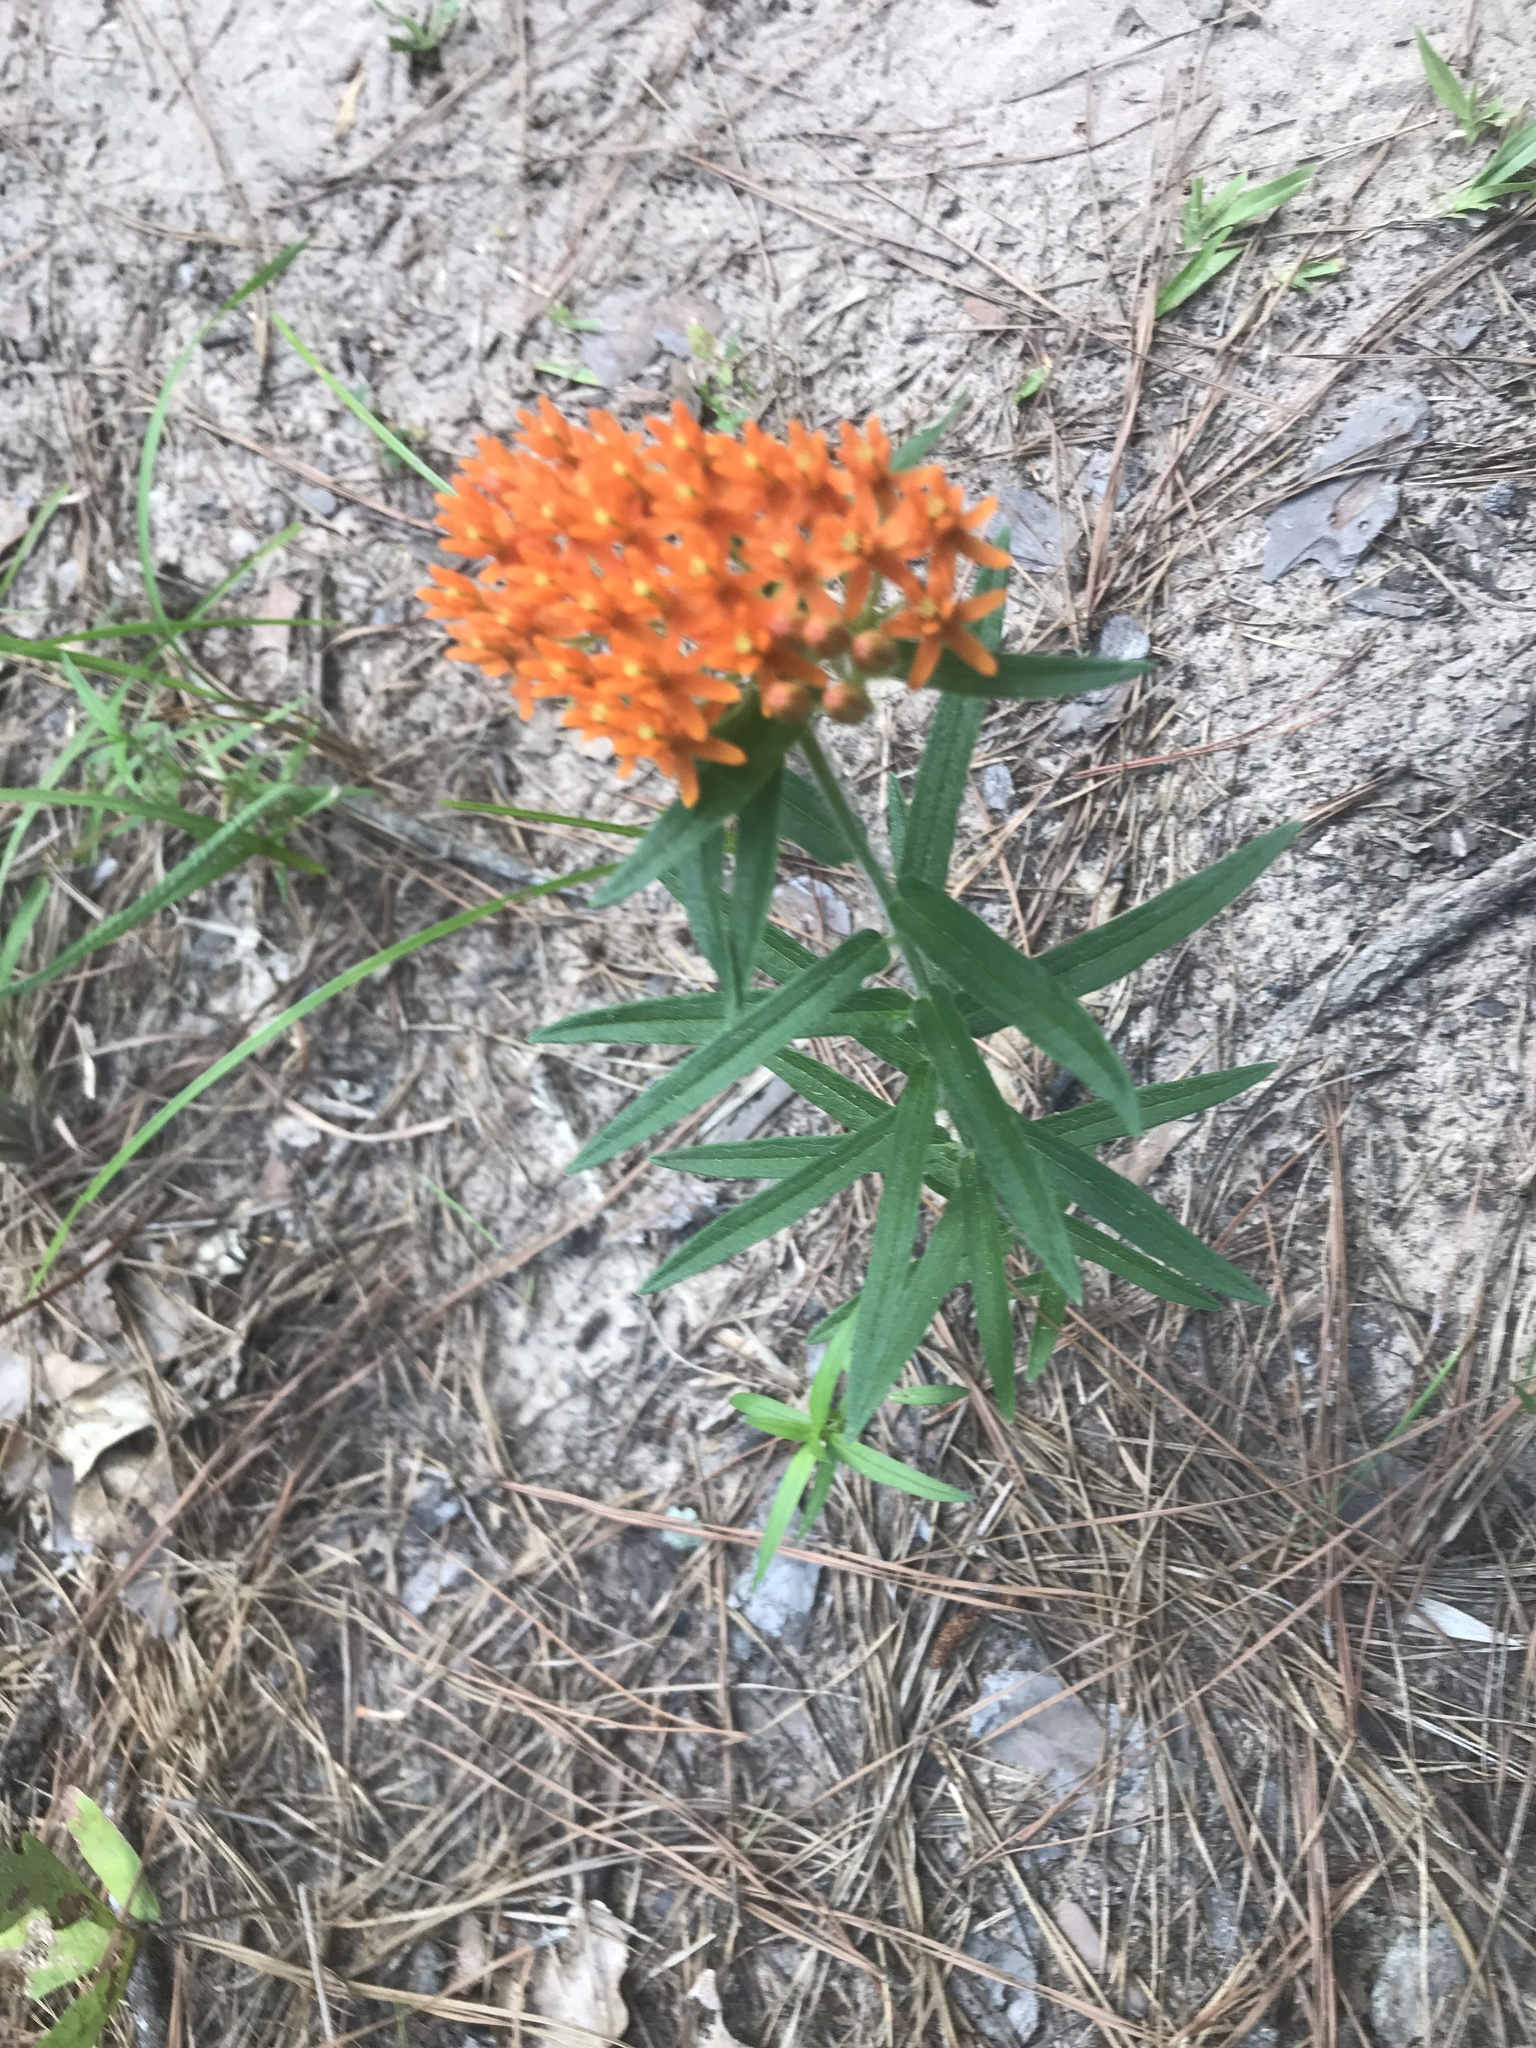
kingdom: Plantae
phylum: Tracheophyta
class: Magnoliopsida
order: Gentianales
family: Apocynaceae
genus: Asclepias
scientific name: Asclepias tuberosa
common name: Butterfly milkweed
